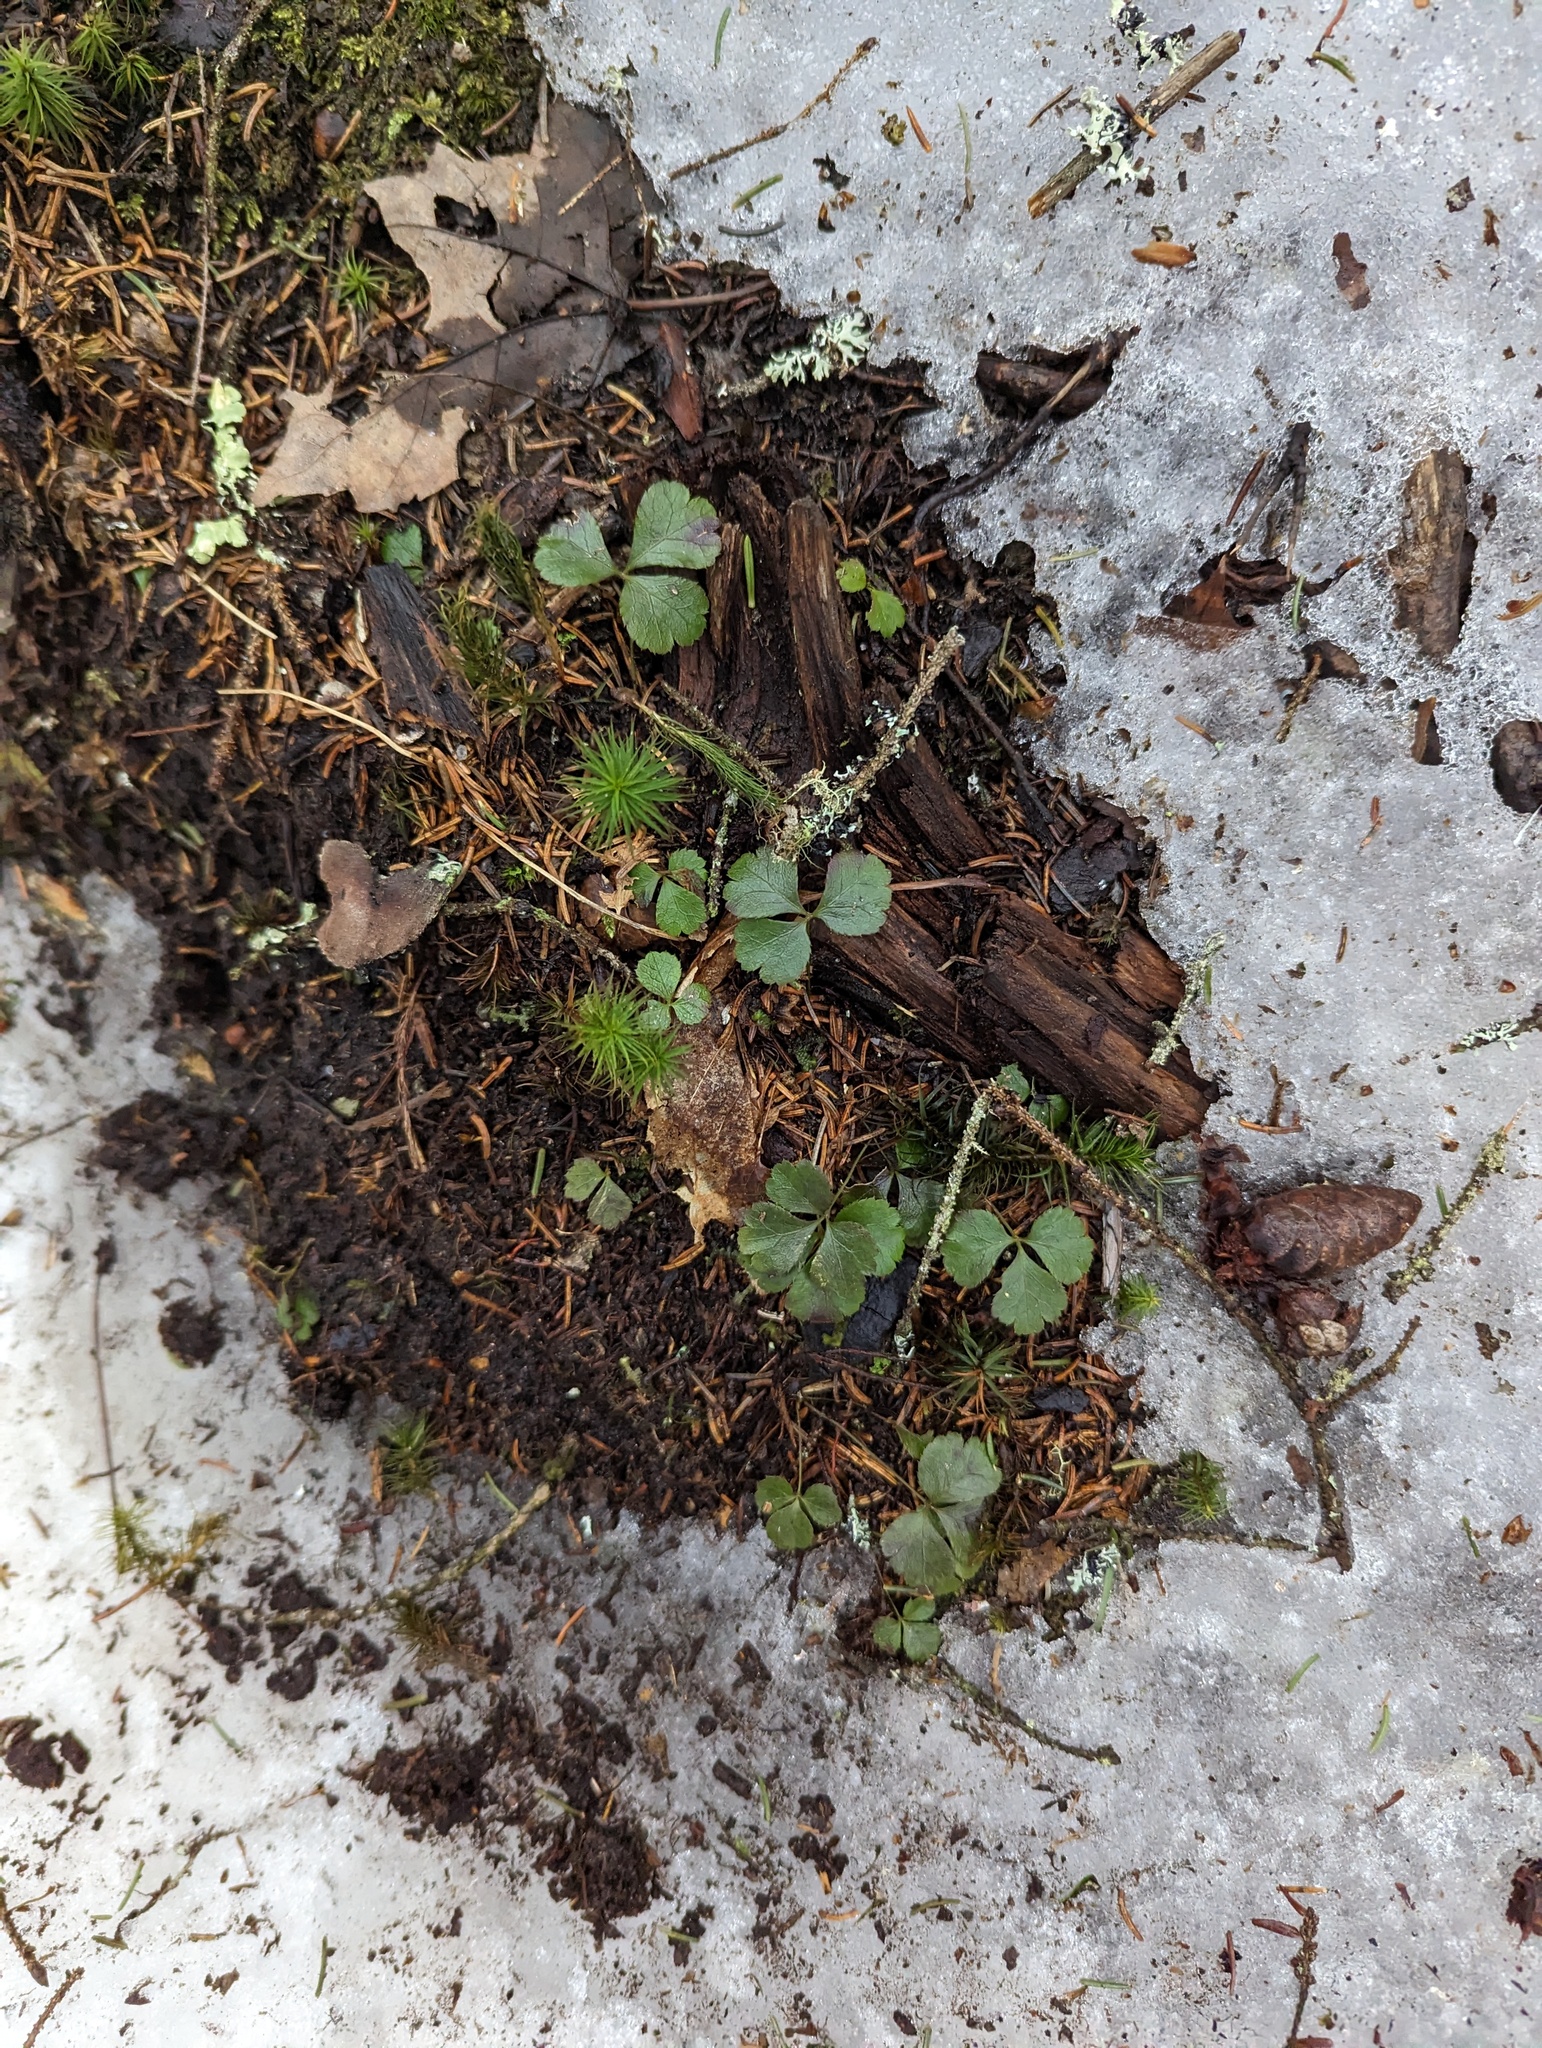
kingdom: Plantae
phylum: Tracheophyta
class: Magnoliopsida
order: Ranunculales
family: Ranunculaceae
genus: Coptis
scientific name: Coptis trifolia
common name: Canker-root
